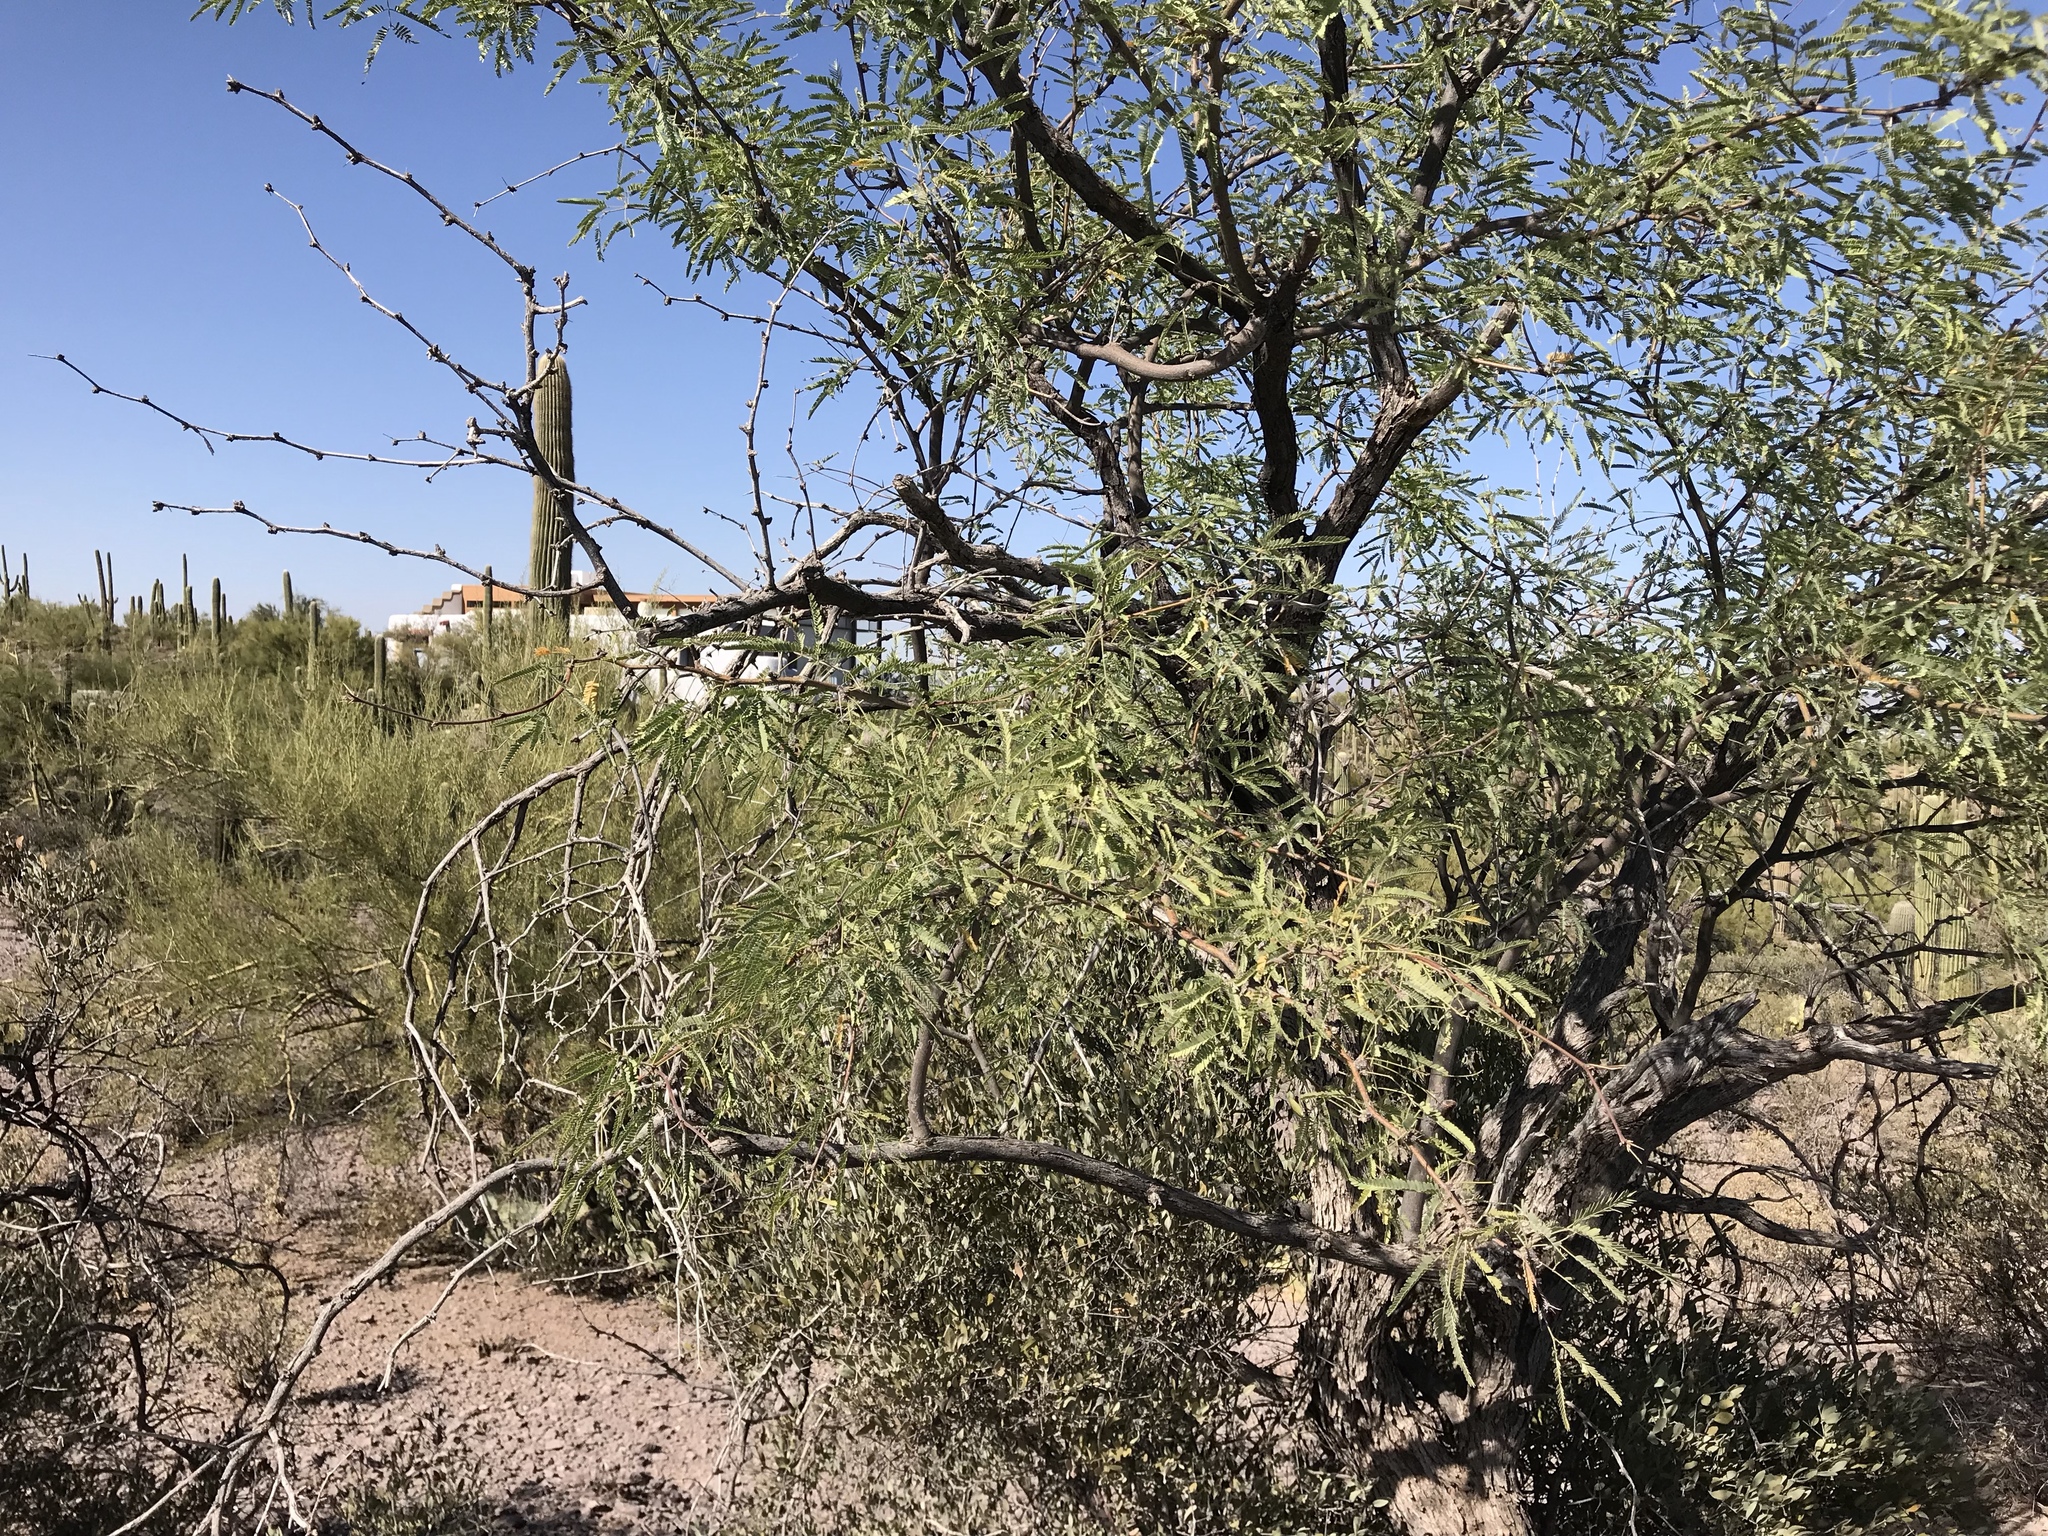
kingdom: Plantae
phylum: Tracheophyta
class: Magnoliopsida
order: Fabales
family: Fabaceae
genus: Prosopis
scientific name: Prosopis velutina
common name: Velvet mesquite
